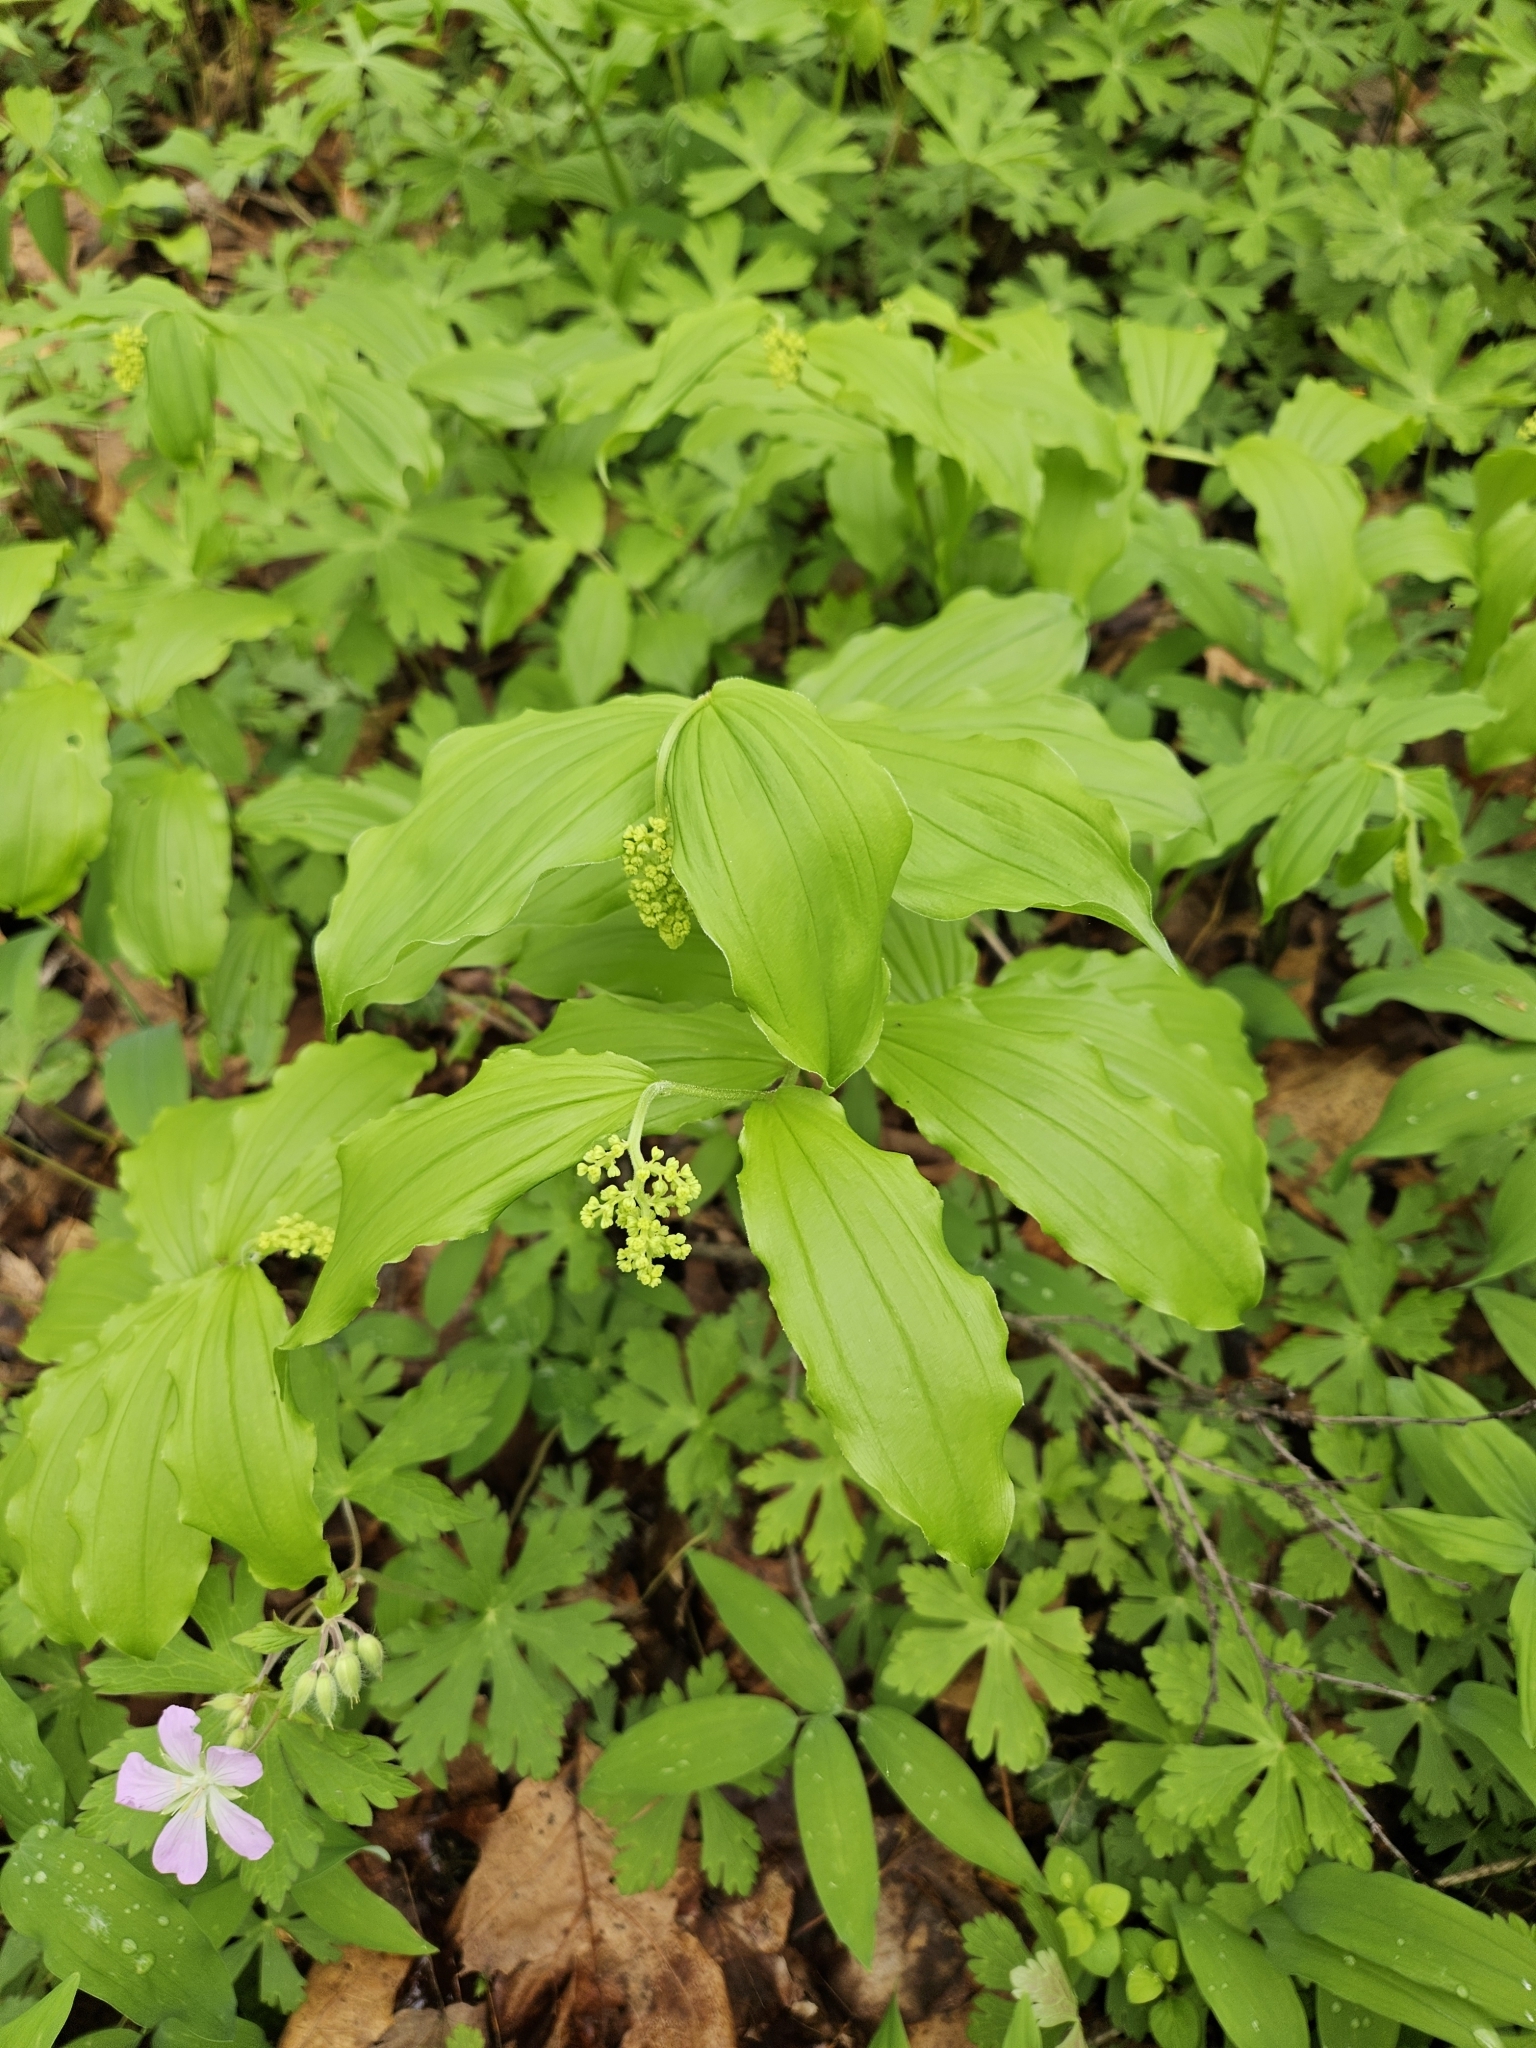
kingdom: Plantae
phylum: Tracheophyta
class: Liliopsida
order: Asparagales
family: Asparagaceae
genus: Maianthemum
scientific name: Maianthemum racemosum
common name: False spikenard
